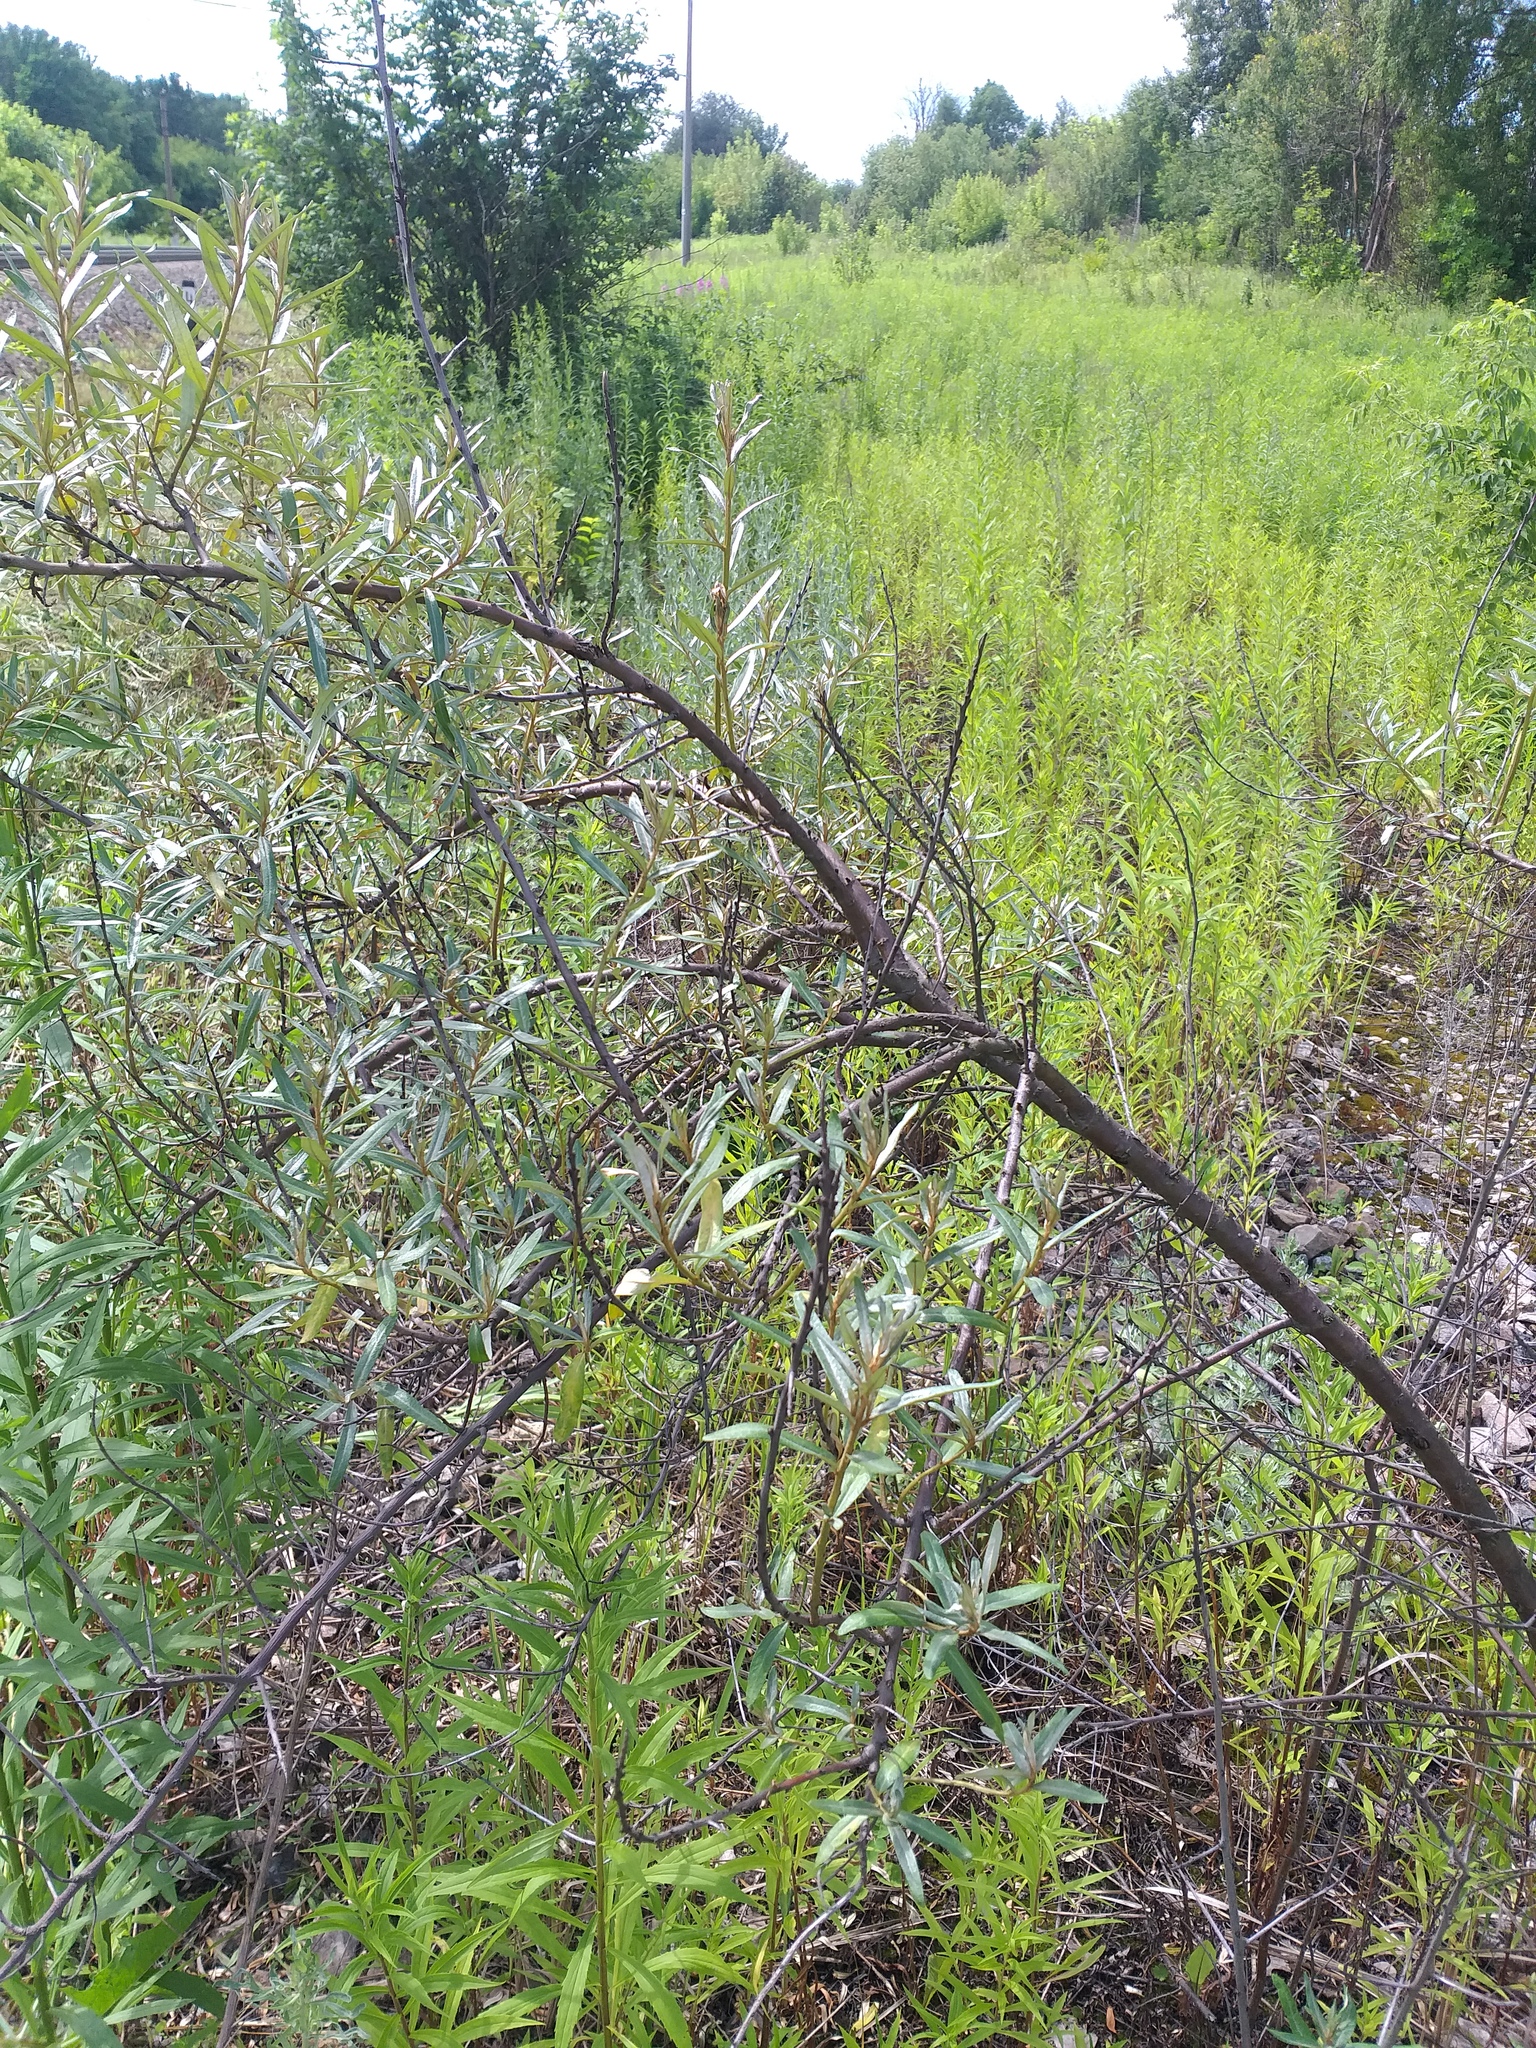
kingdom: Plantae
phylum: Tracheophyta
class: Magnoliopsida
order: Rosales
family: Elaeagnaceae
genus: Hippophae
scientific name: Hippophae rhamnoides
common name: Sea-buckthorn
